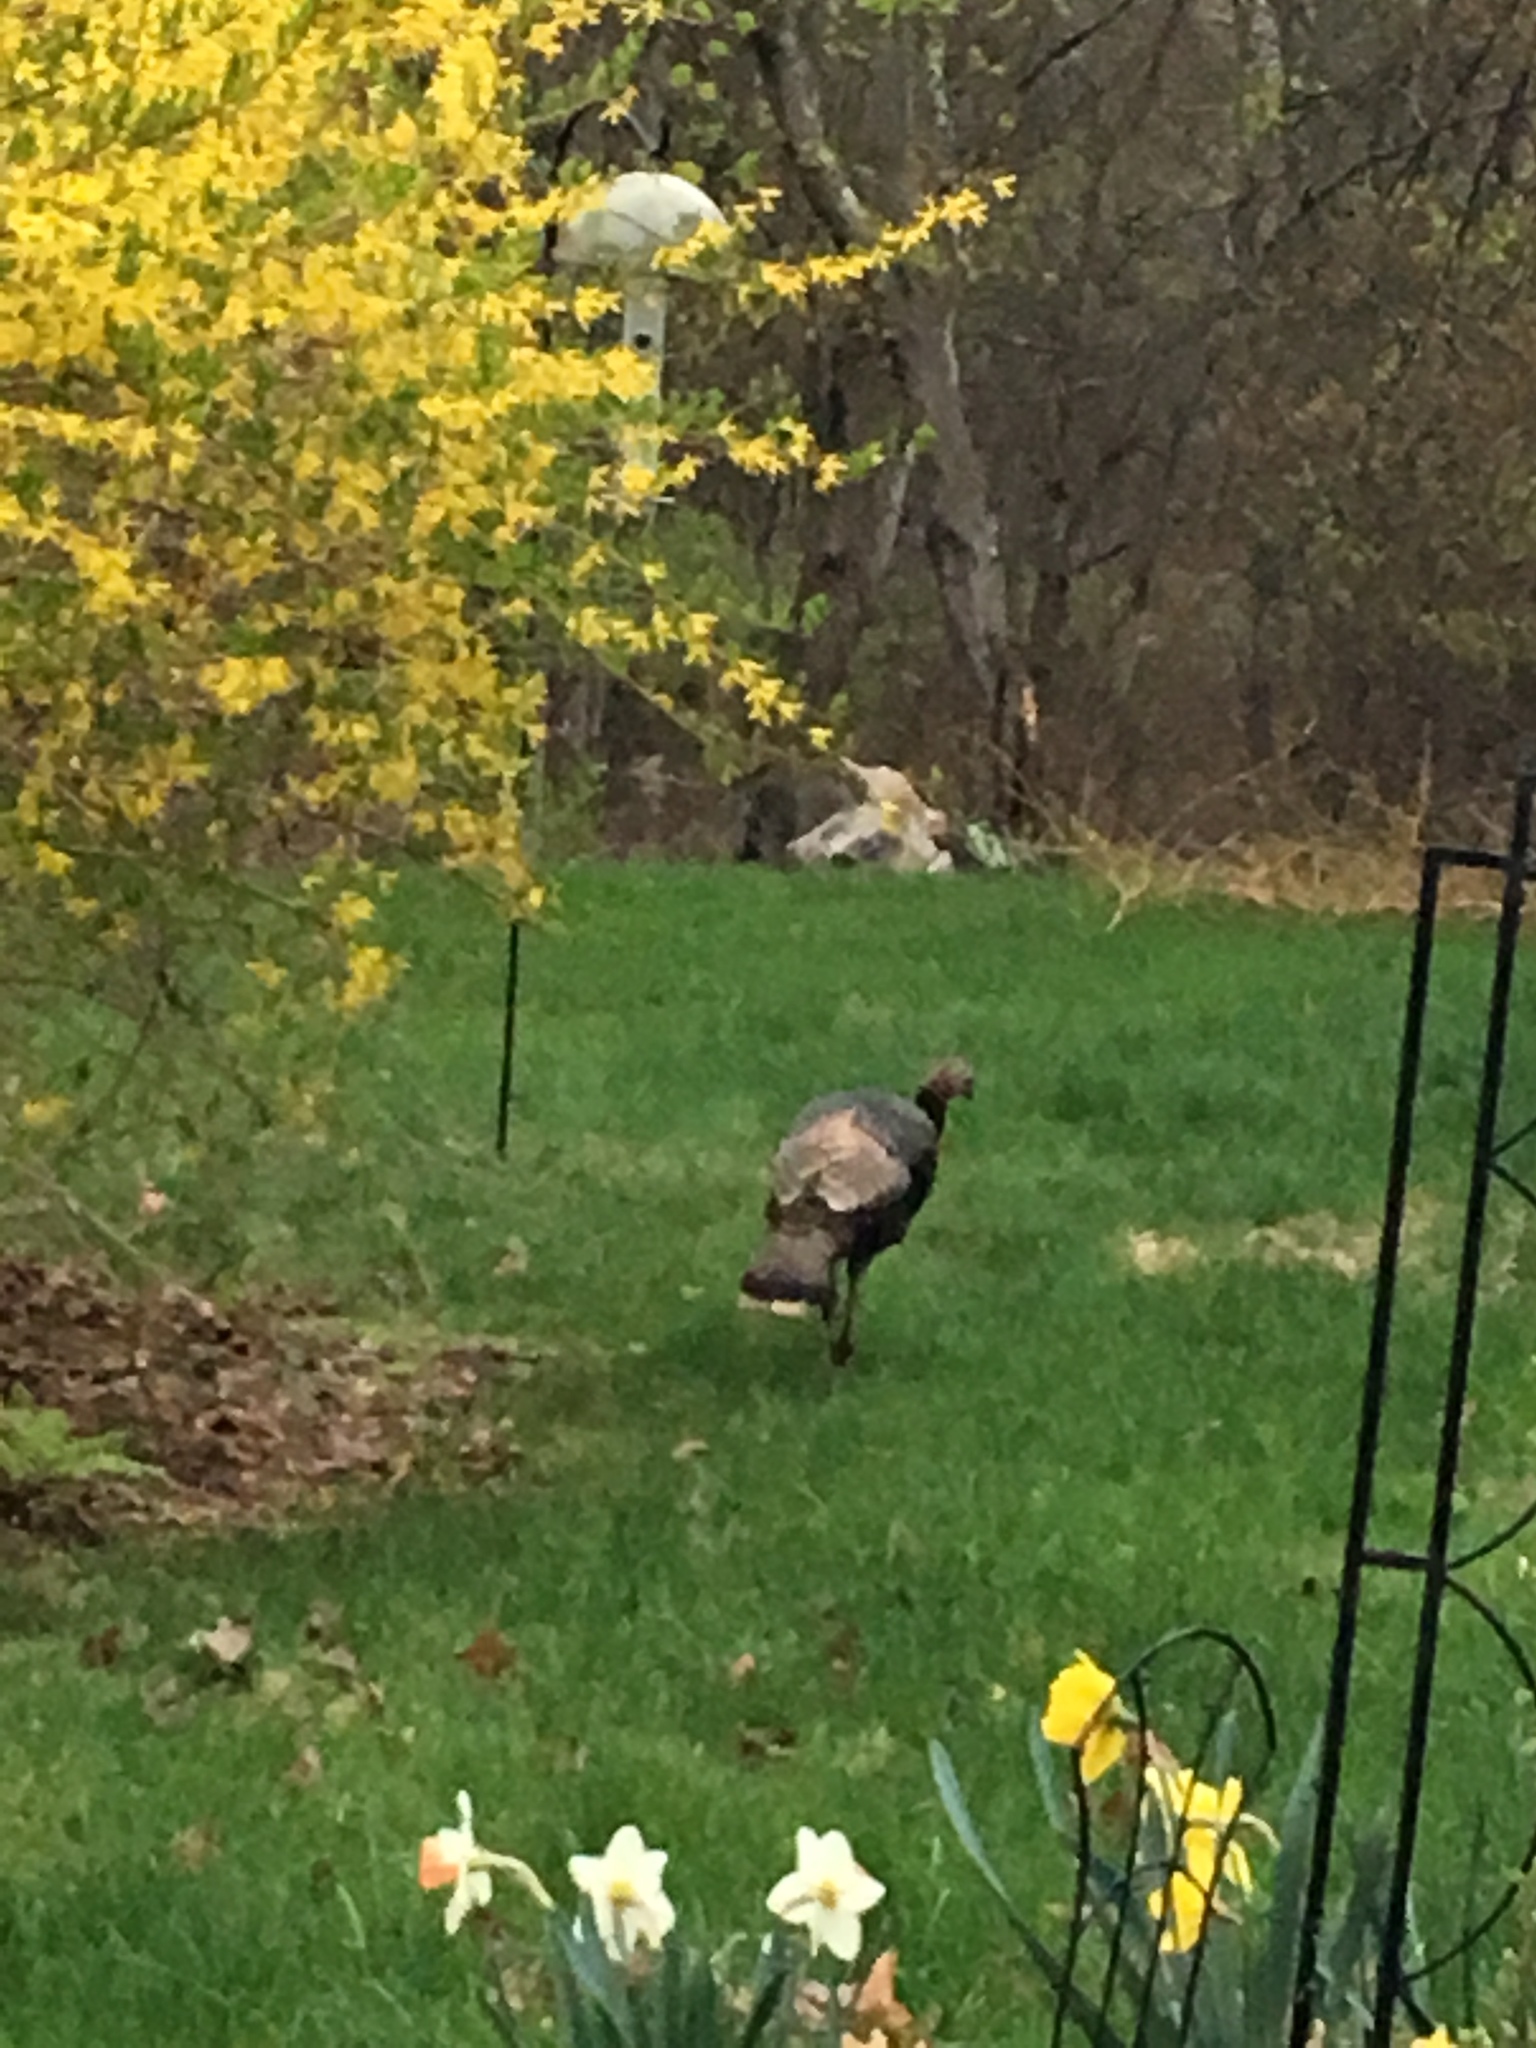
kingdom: Animalia
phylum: Chordata
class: Aves
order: Galliformes
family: Phasianidae
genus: Meleagris
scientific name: Meleagris gallopavo
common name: Wild turkey
